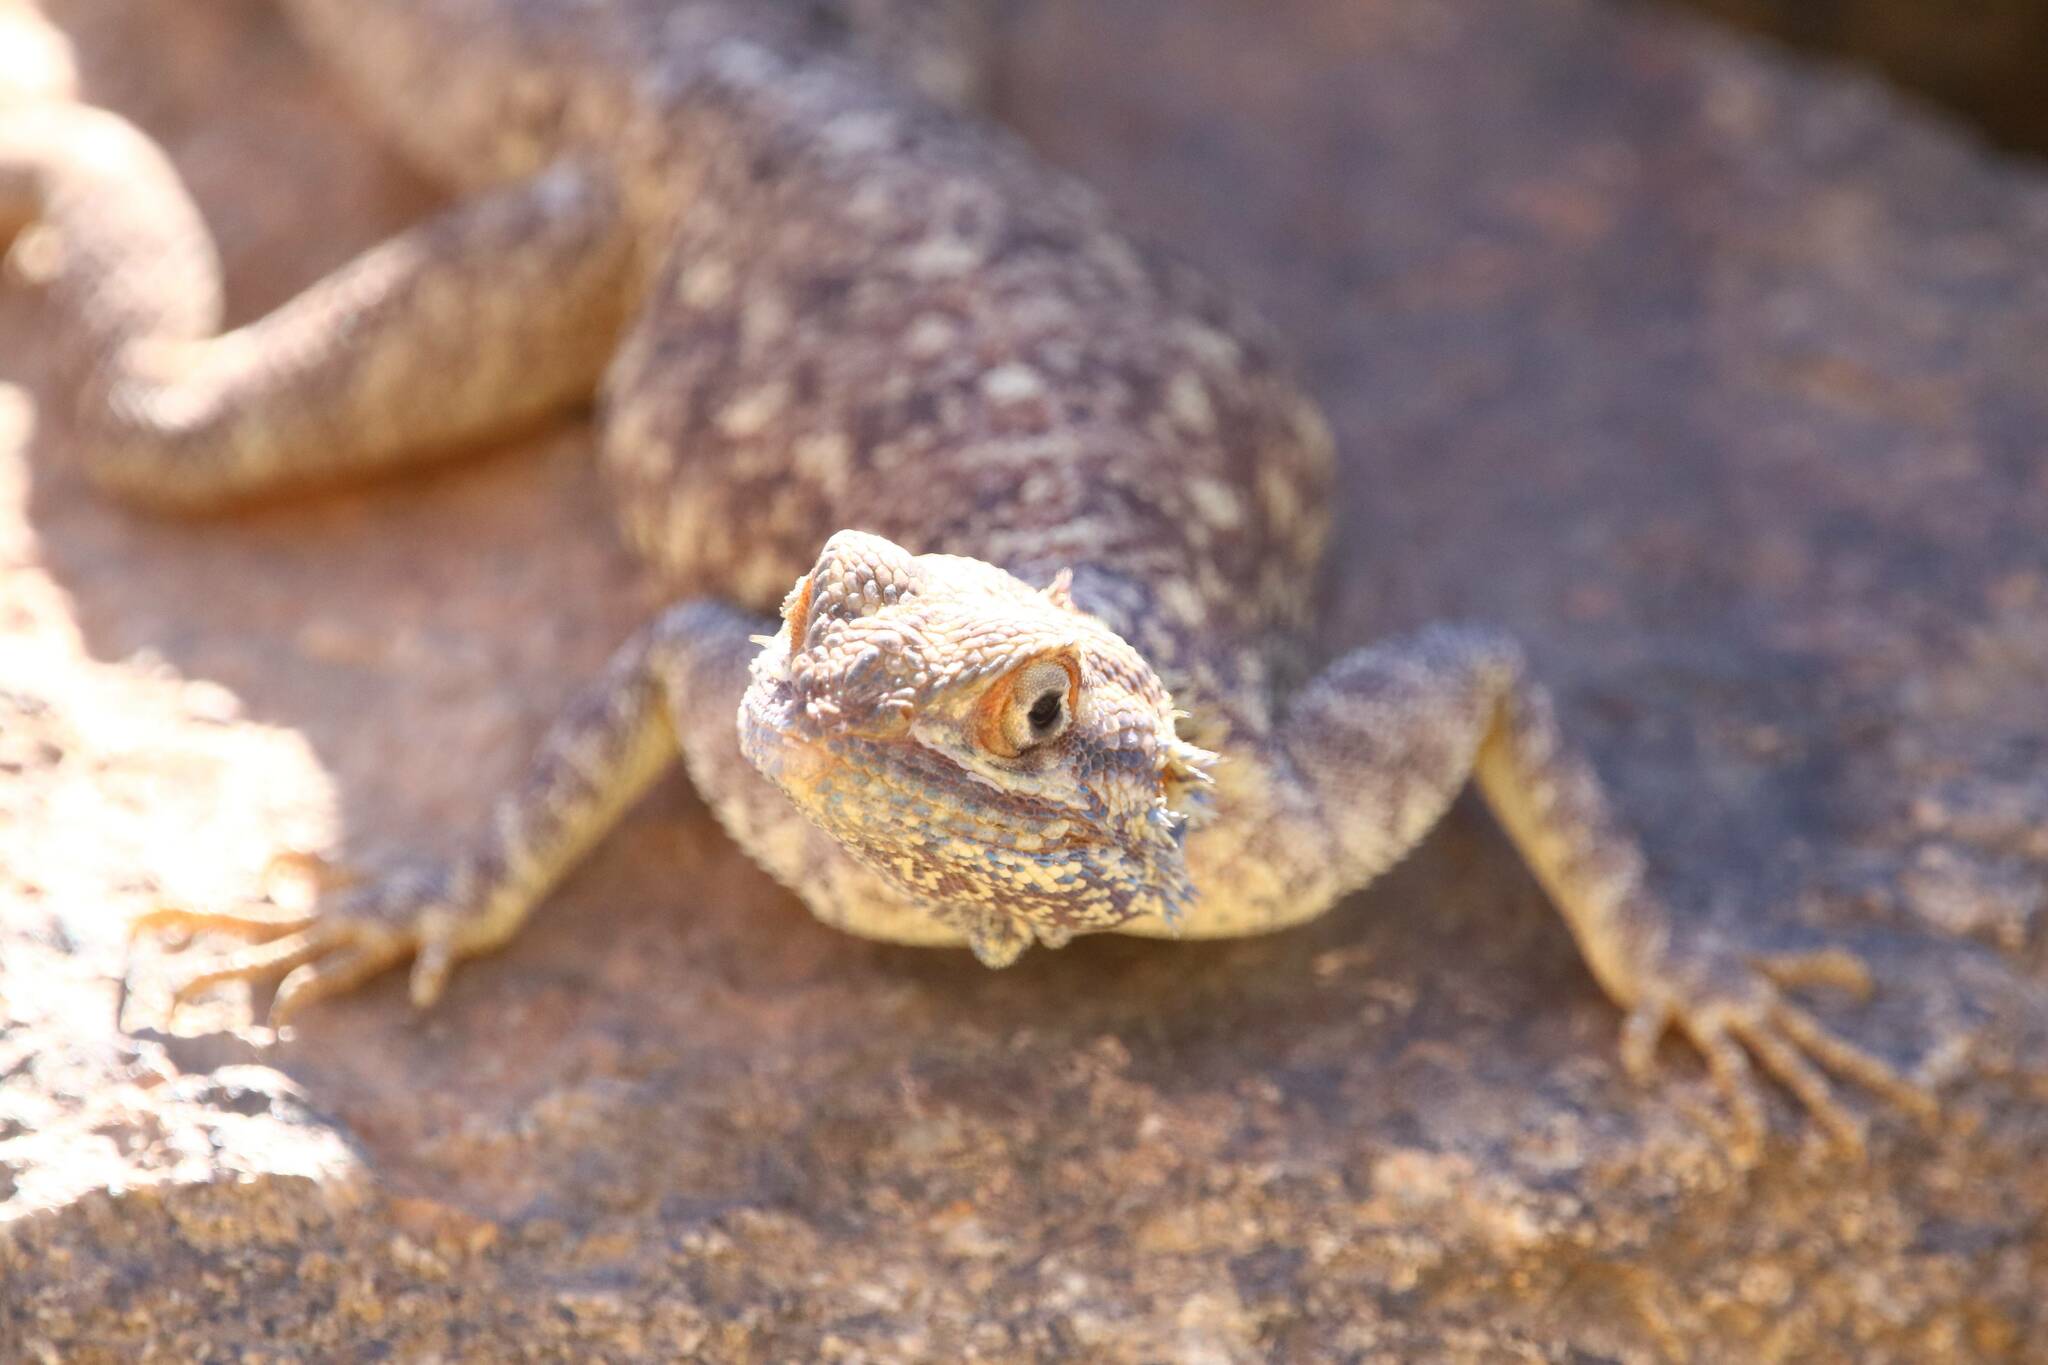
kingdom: Animalia
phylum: Chordata
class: Squamata
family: Agamidae
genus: Agama
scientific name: Agama tassiliensis
